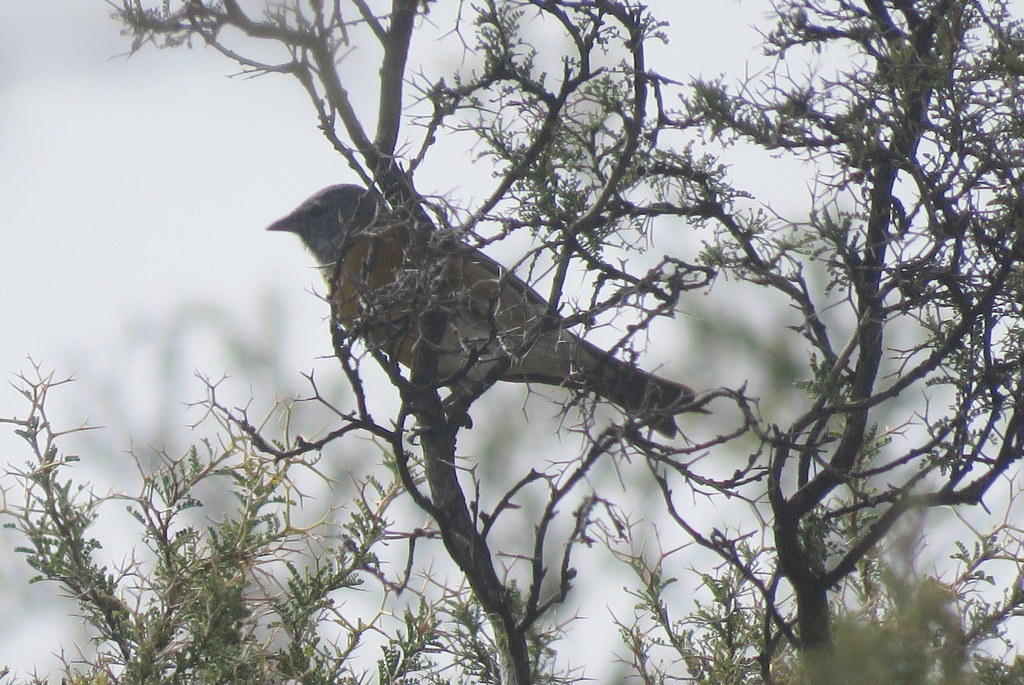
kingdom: Animalia
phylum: Chordata
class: Aves
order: Passeriformes
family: Thraupidae
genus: Phrygilus
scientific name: Phrygilus gayi
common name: Grey-hooded sierra finch
